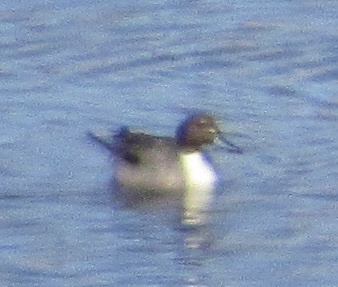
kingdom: Animalia
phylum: Chordata
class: Aves
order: Anseriformes
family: Anatidae
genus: Anas
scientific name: Anas acuta
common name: Northern pintail
